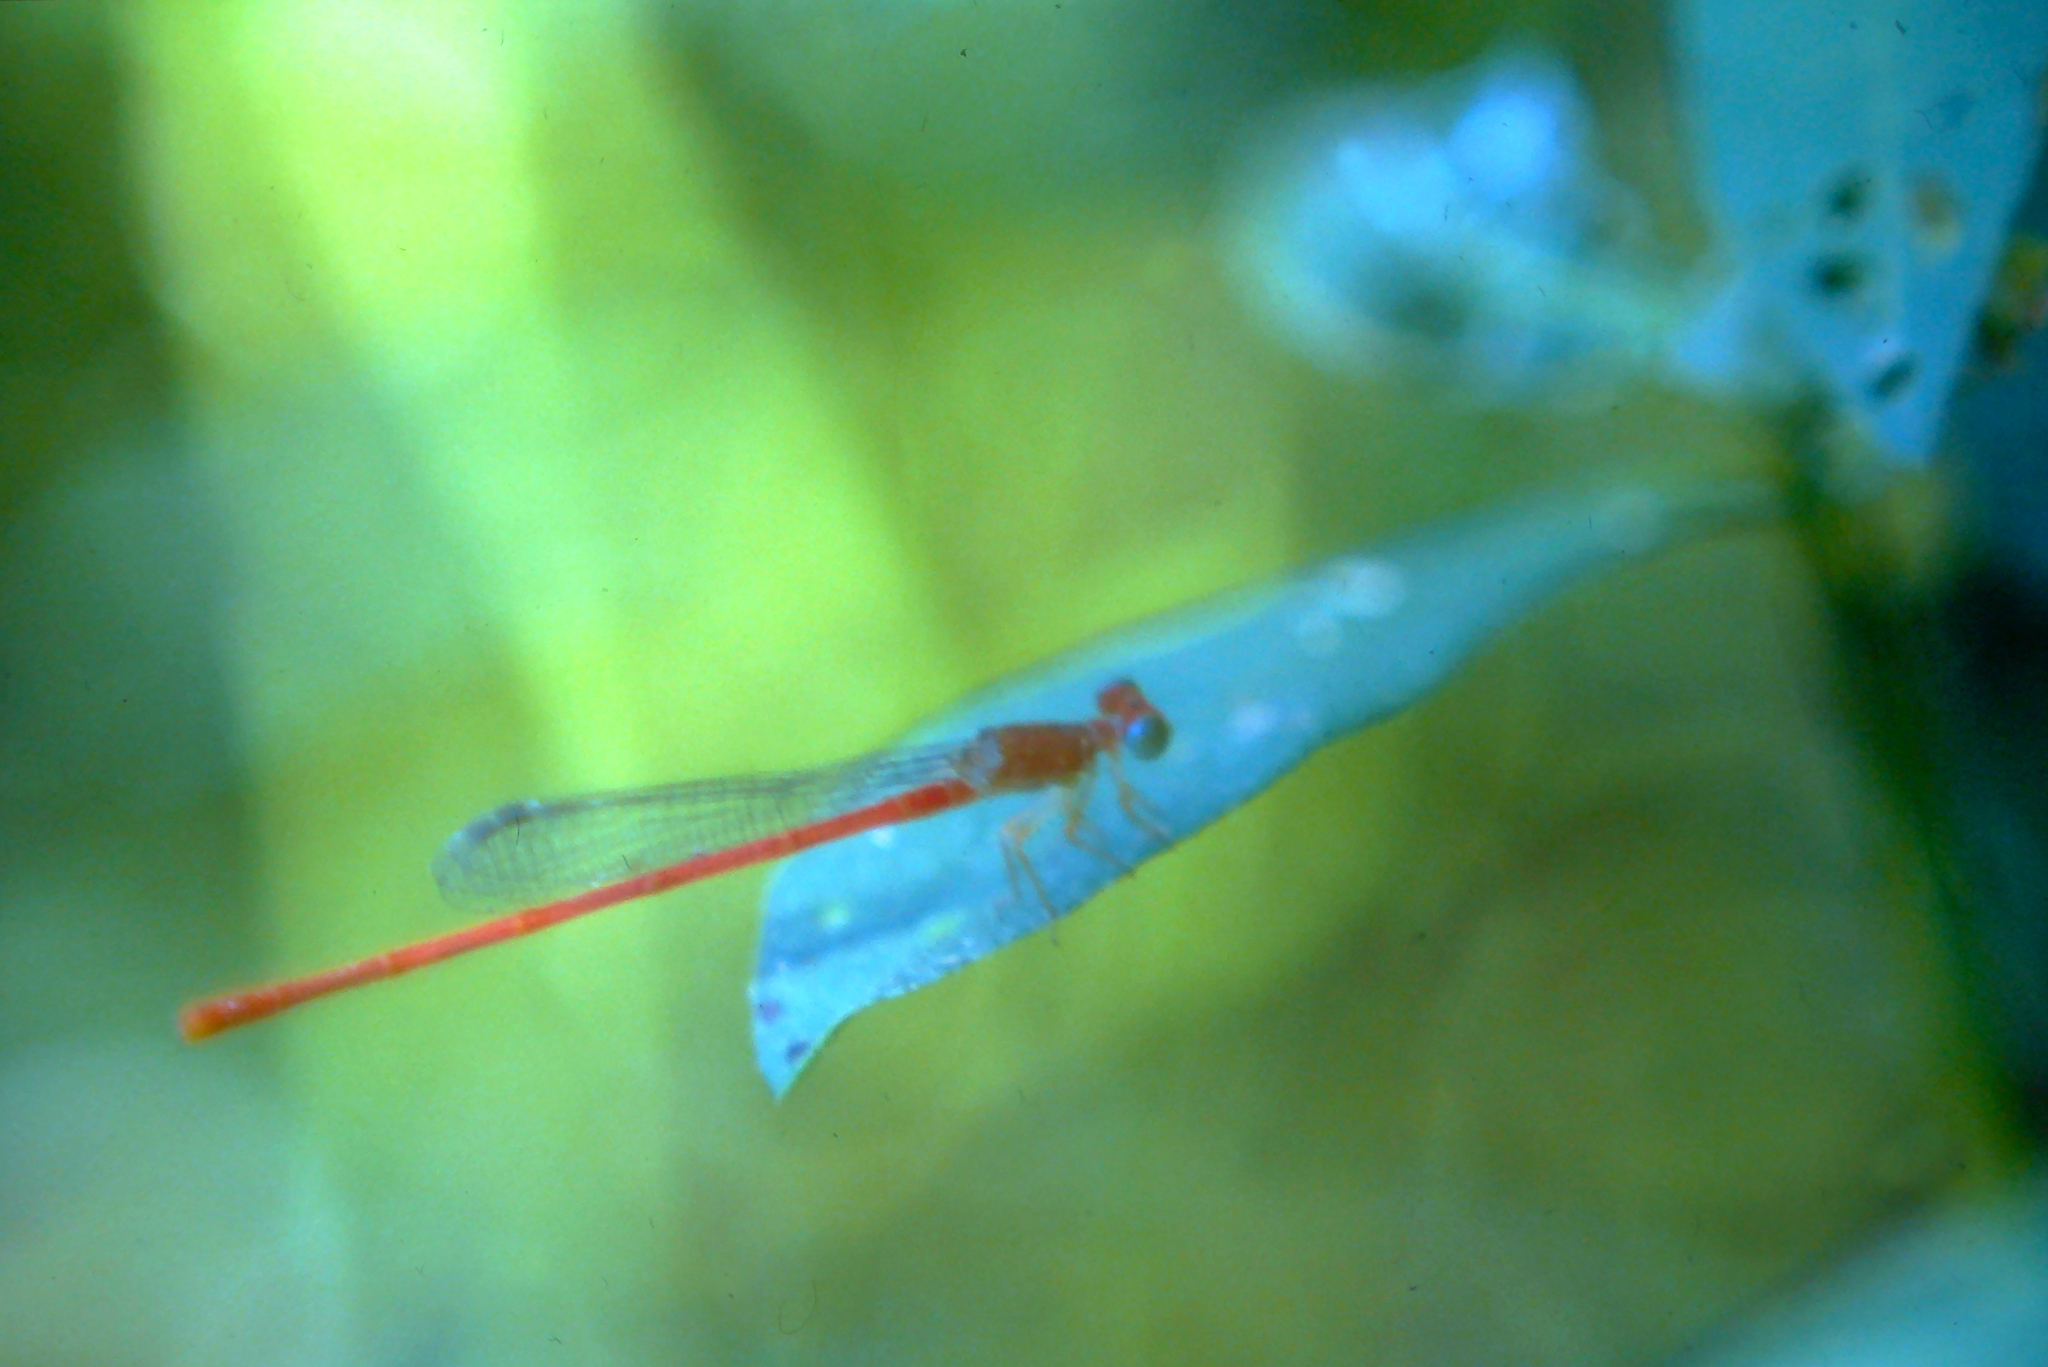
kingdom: Animalia
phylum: Arthropoda
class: Insecta
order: Odonata
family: Coenagrionidae
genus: Ceriagrion
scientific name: Ceriagrion auranticum
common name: Orange-tailed sprite
